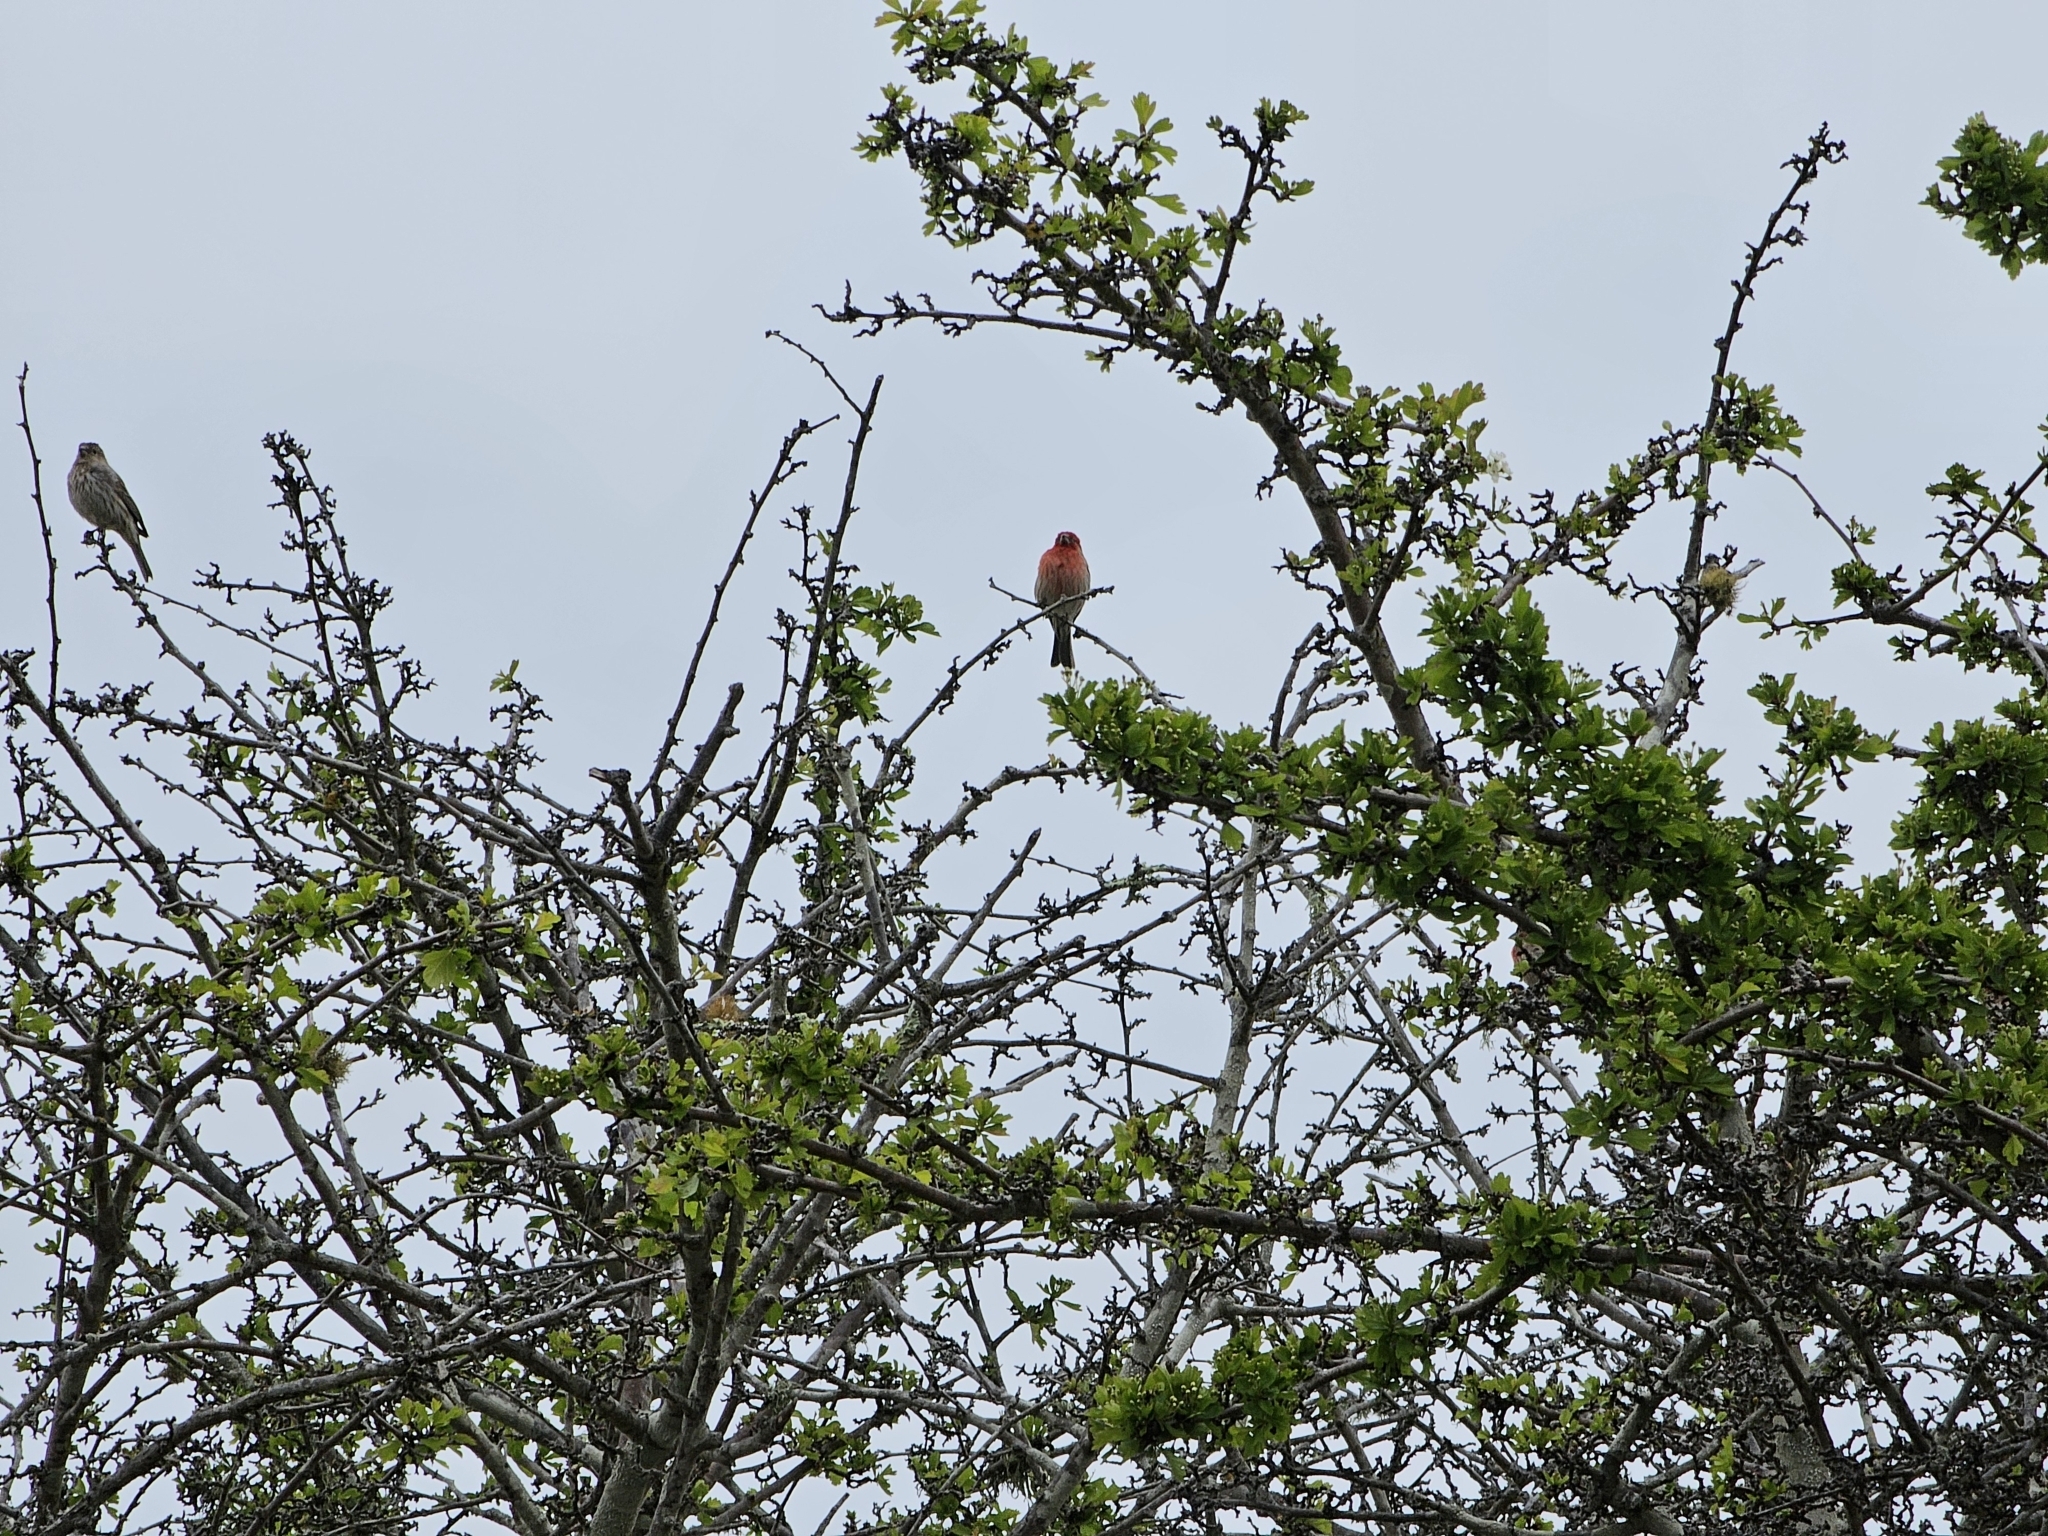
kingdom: Animalia
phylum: Chordata
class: Aves
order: Passeriformes
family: Fringillidae
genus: Haemorhous
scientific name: Haemorhous mexicanus
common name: House finch
